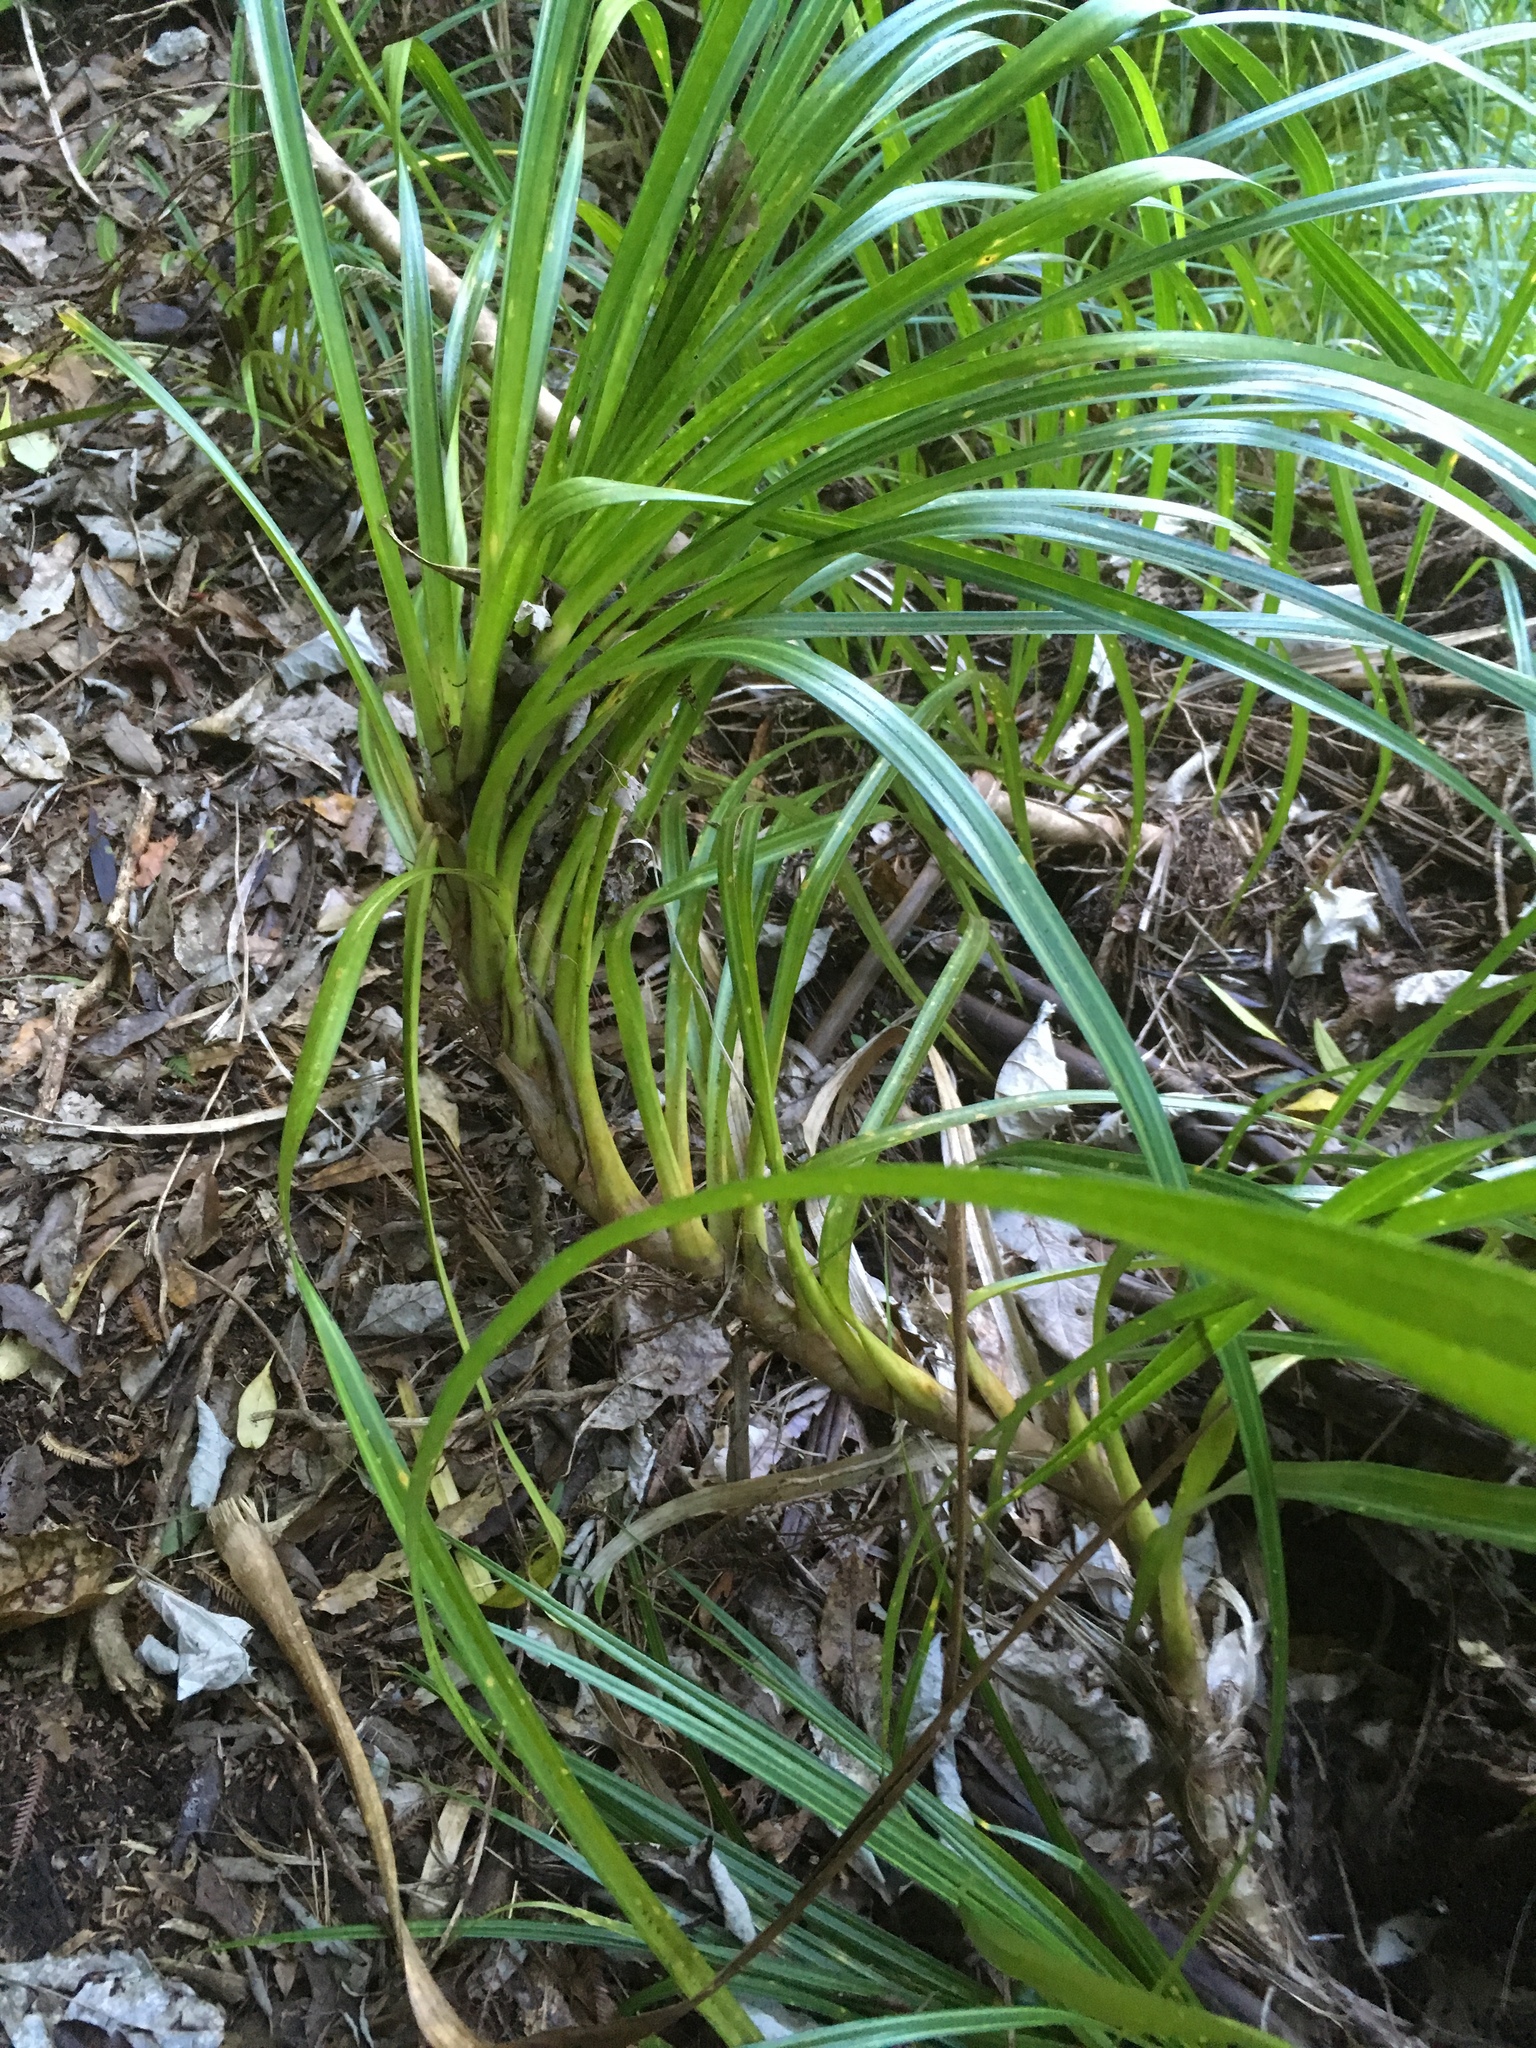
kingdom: Plantae
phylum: Tracheophyta
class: Liliopsida
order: Pandanales
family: Pandanaceae
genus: Freycinetia
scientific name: Freycinetia banksii
